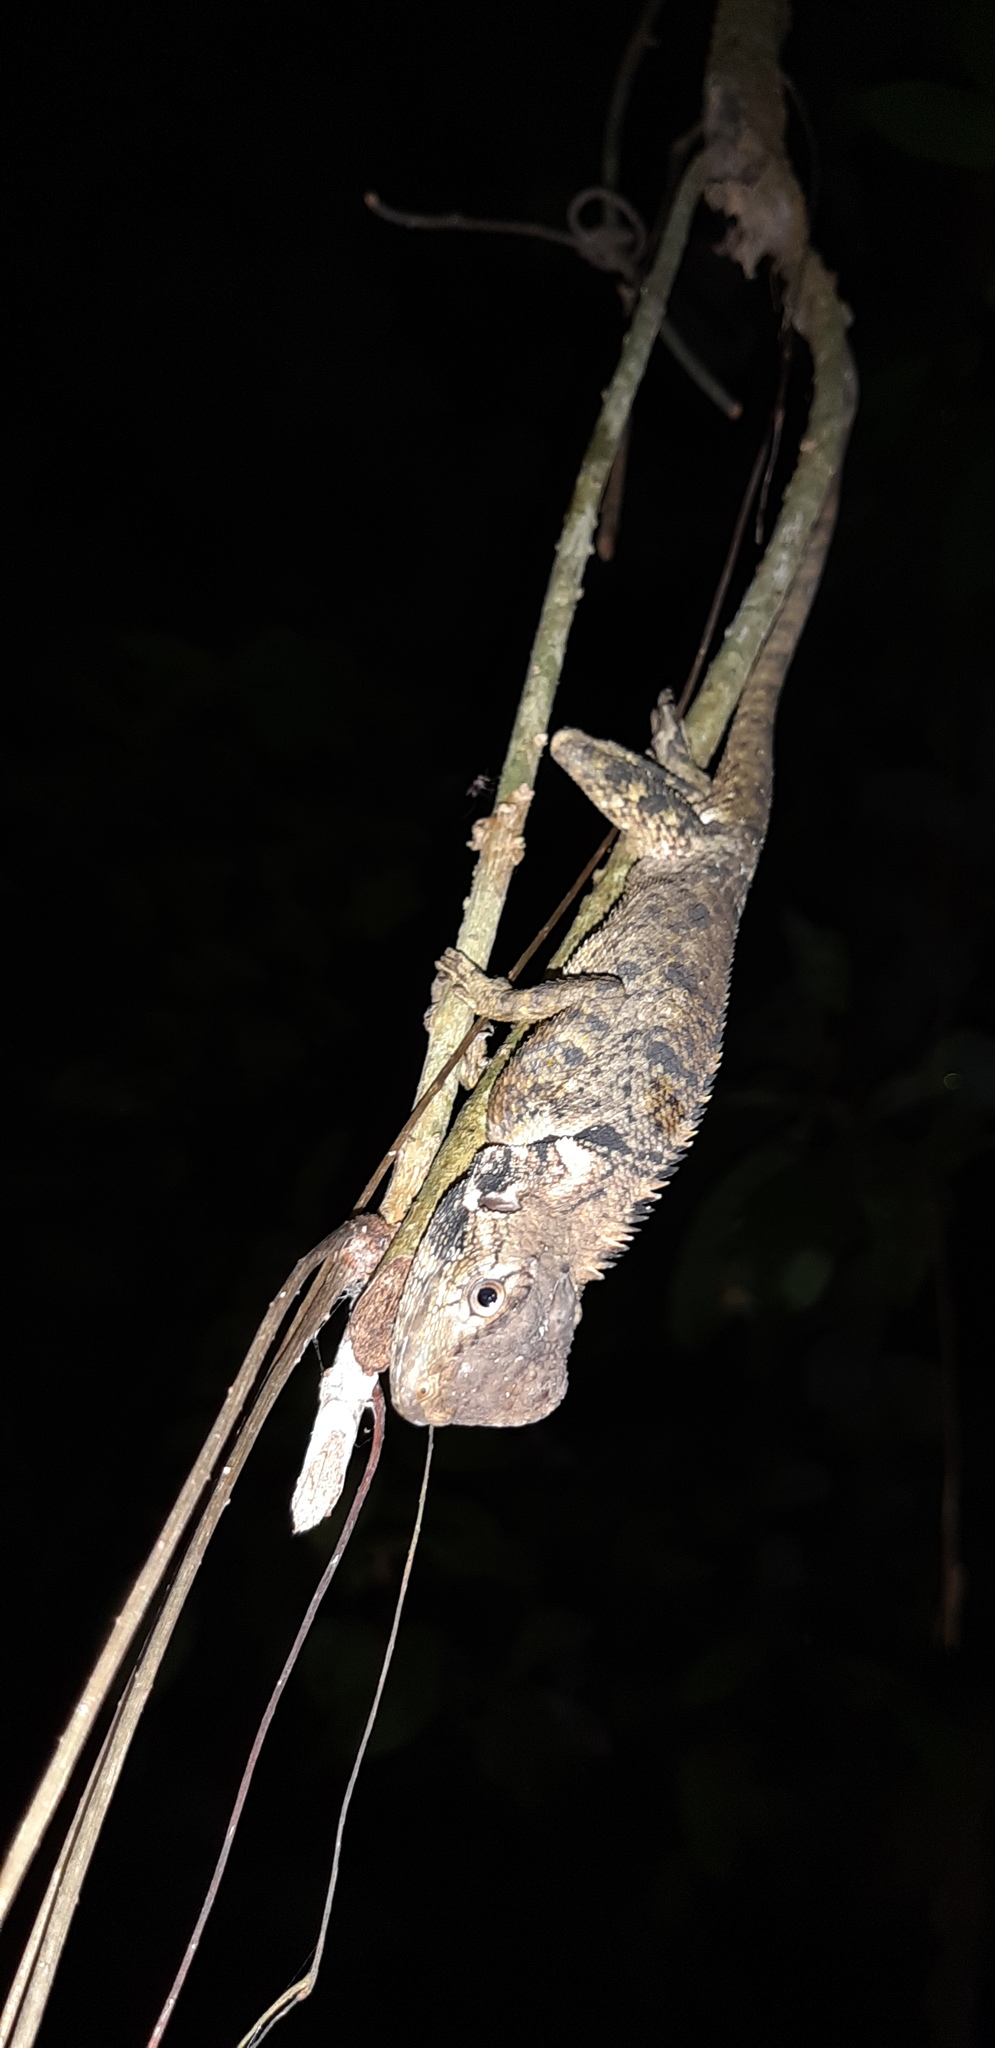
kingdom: Animalia
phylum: Chordata
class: Squamata
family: Tropiduridae
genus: Plica
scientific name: Plica umbra
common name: Harlequin racerunner
